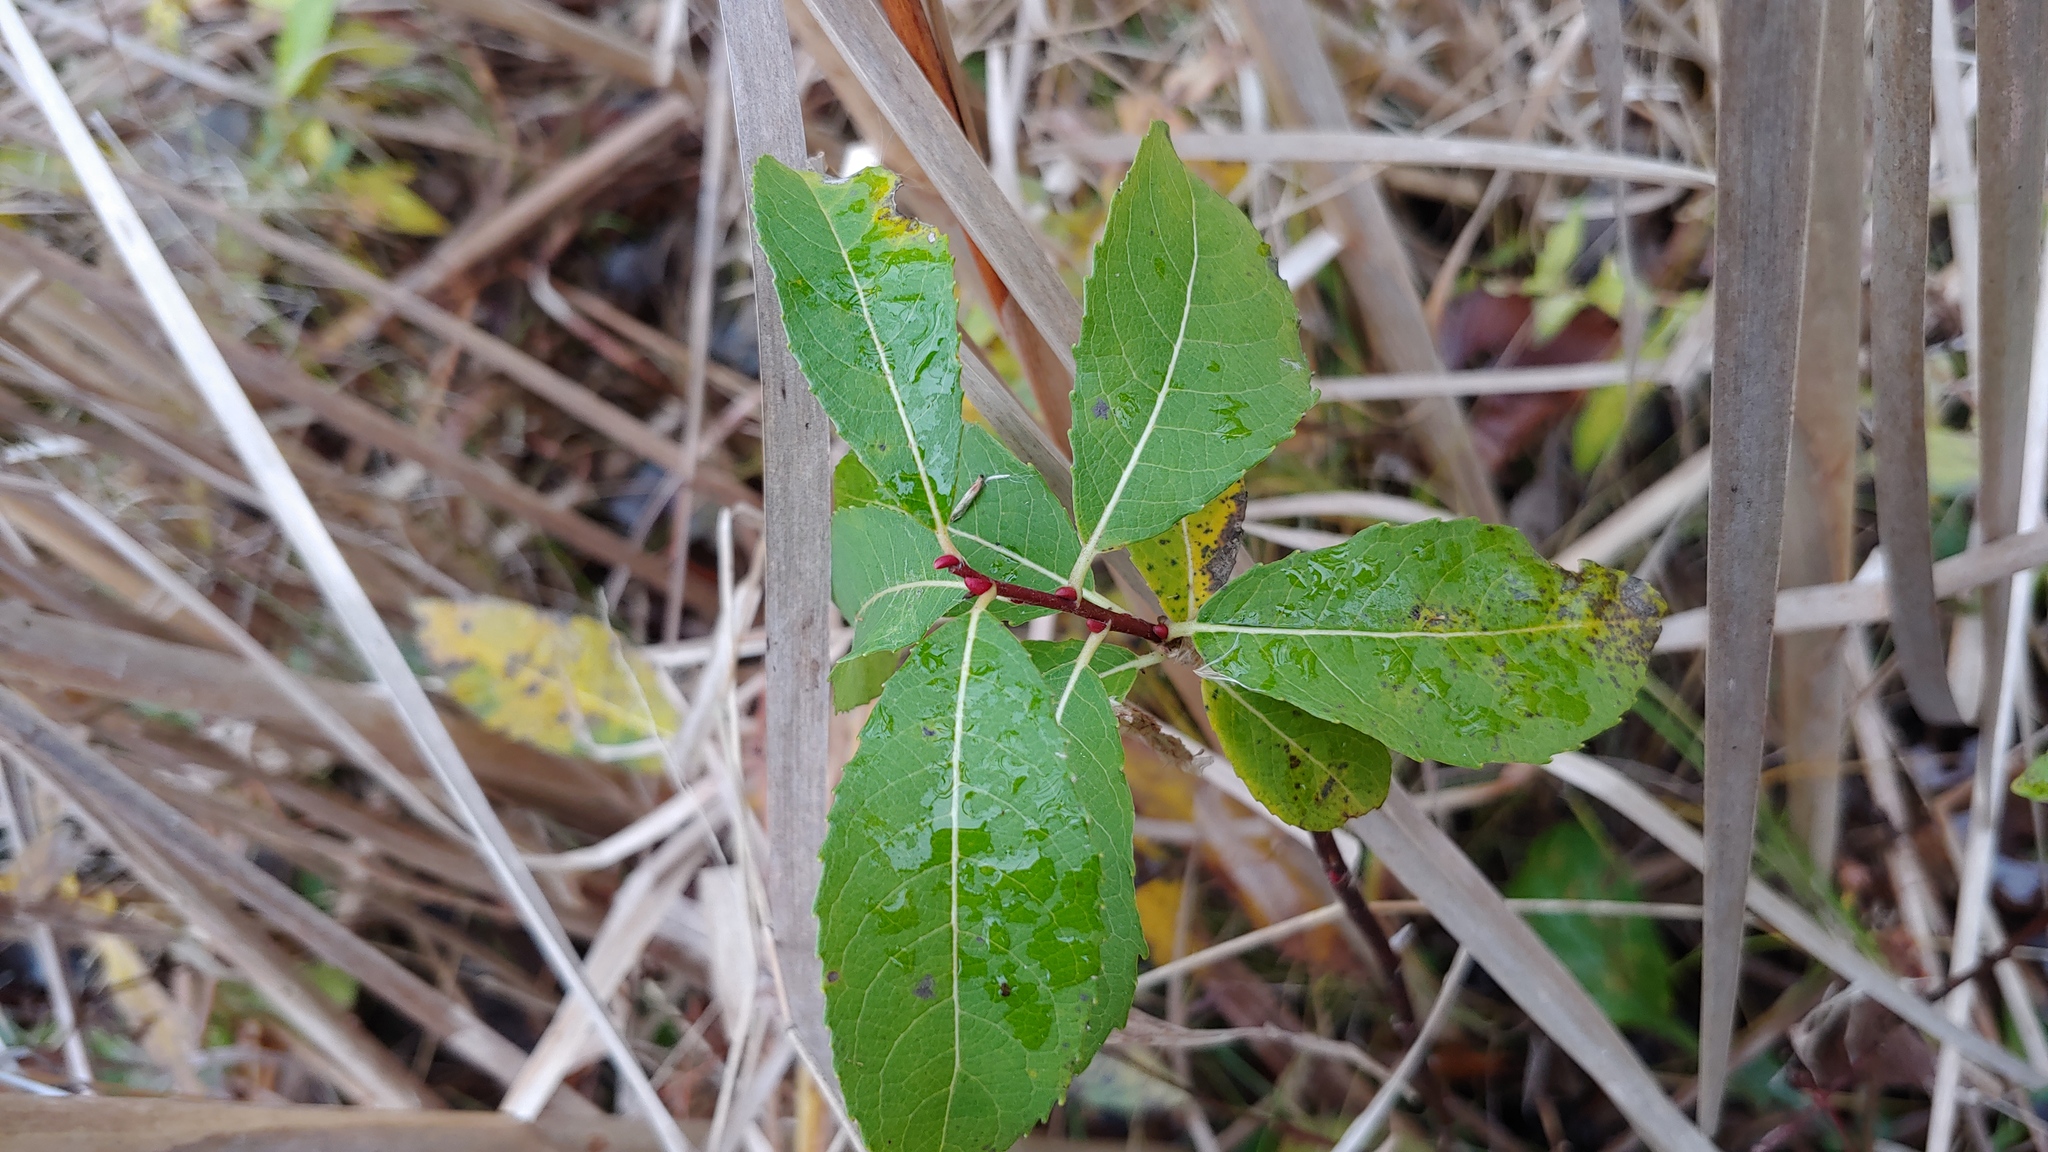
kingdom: Plantae
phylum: Tracheophyta
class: Magnoliopsida
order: Malpighiales
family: Salicaceae
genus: Salix
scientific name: Salix discolor
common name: Glaucous willow
